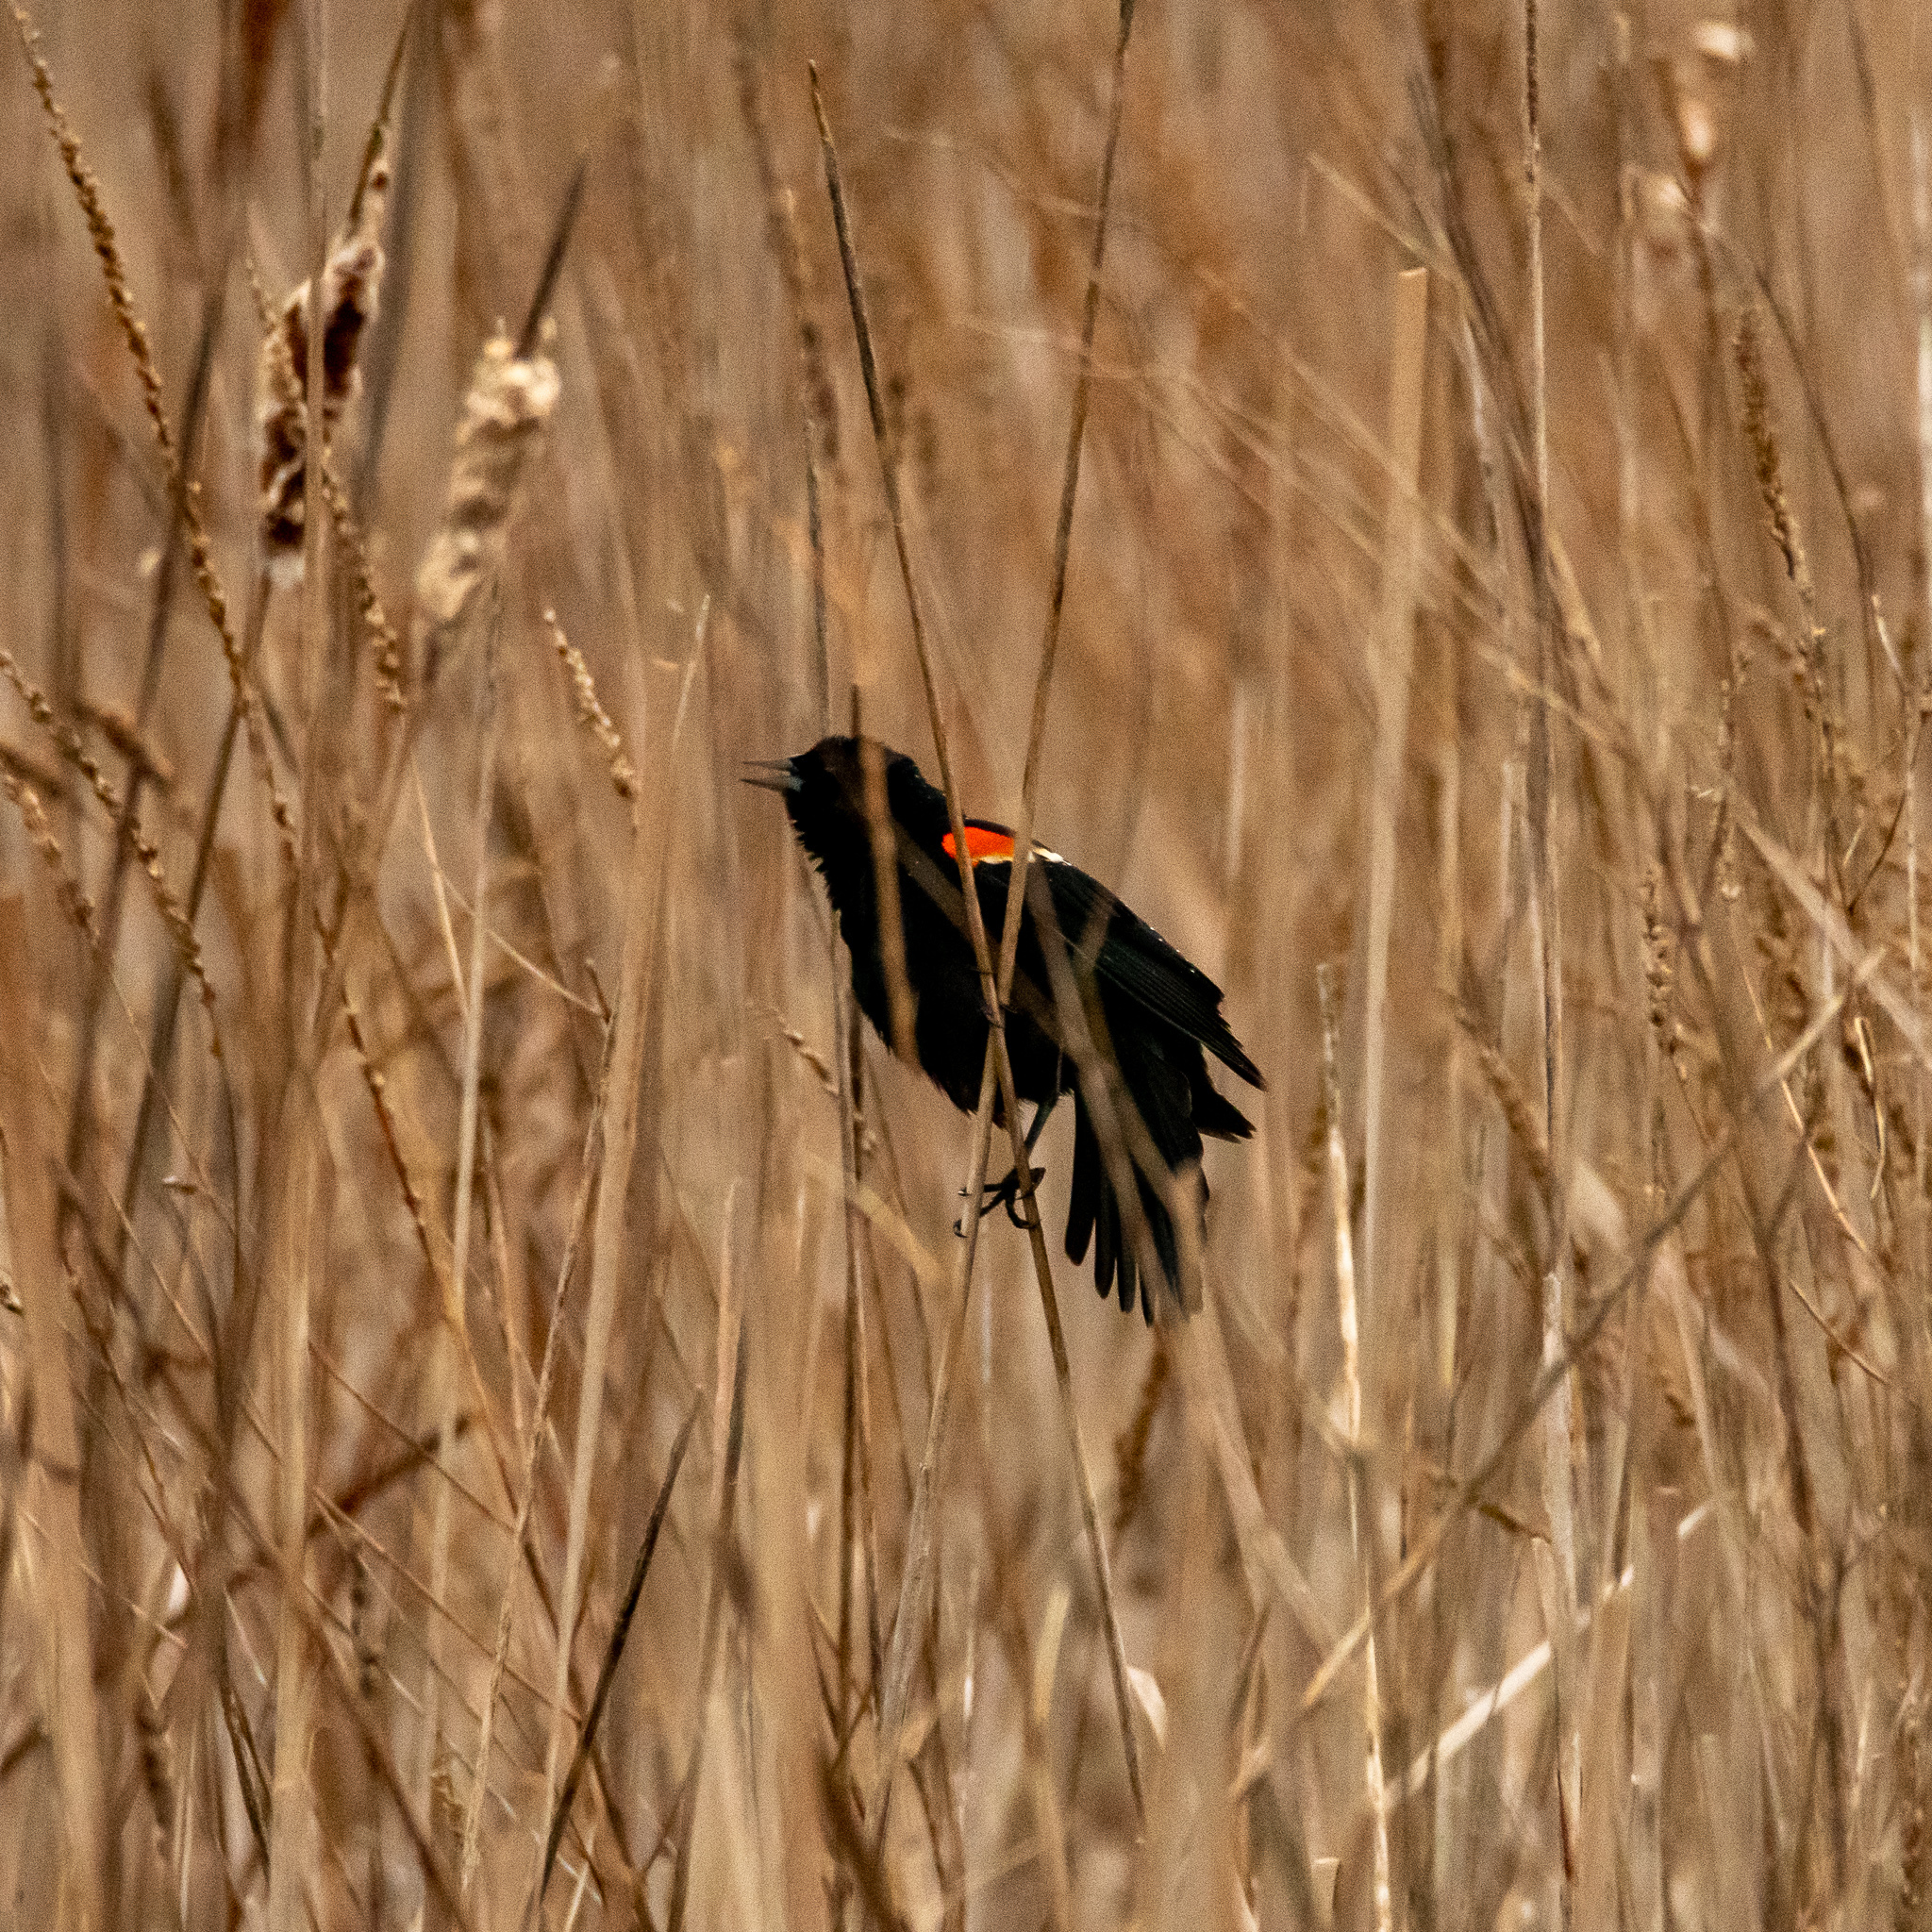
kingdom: Animalia
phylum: Chordata
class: Aves
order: Passeriformes
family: Icteridae
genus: Agelaius
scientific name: Agelaius phoeniceus
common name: Red-winged blackbird
